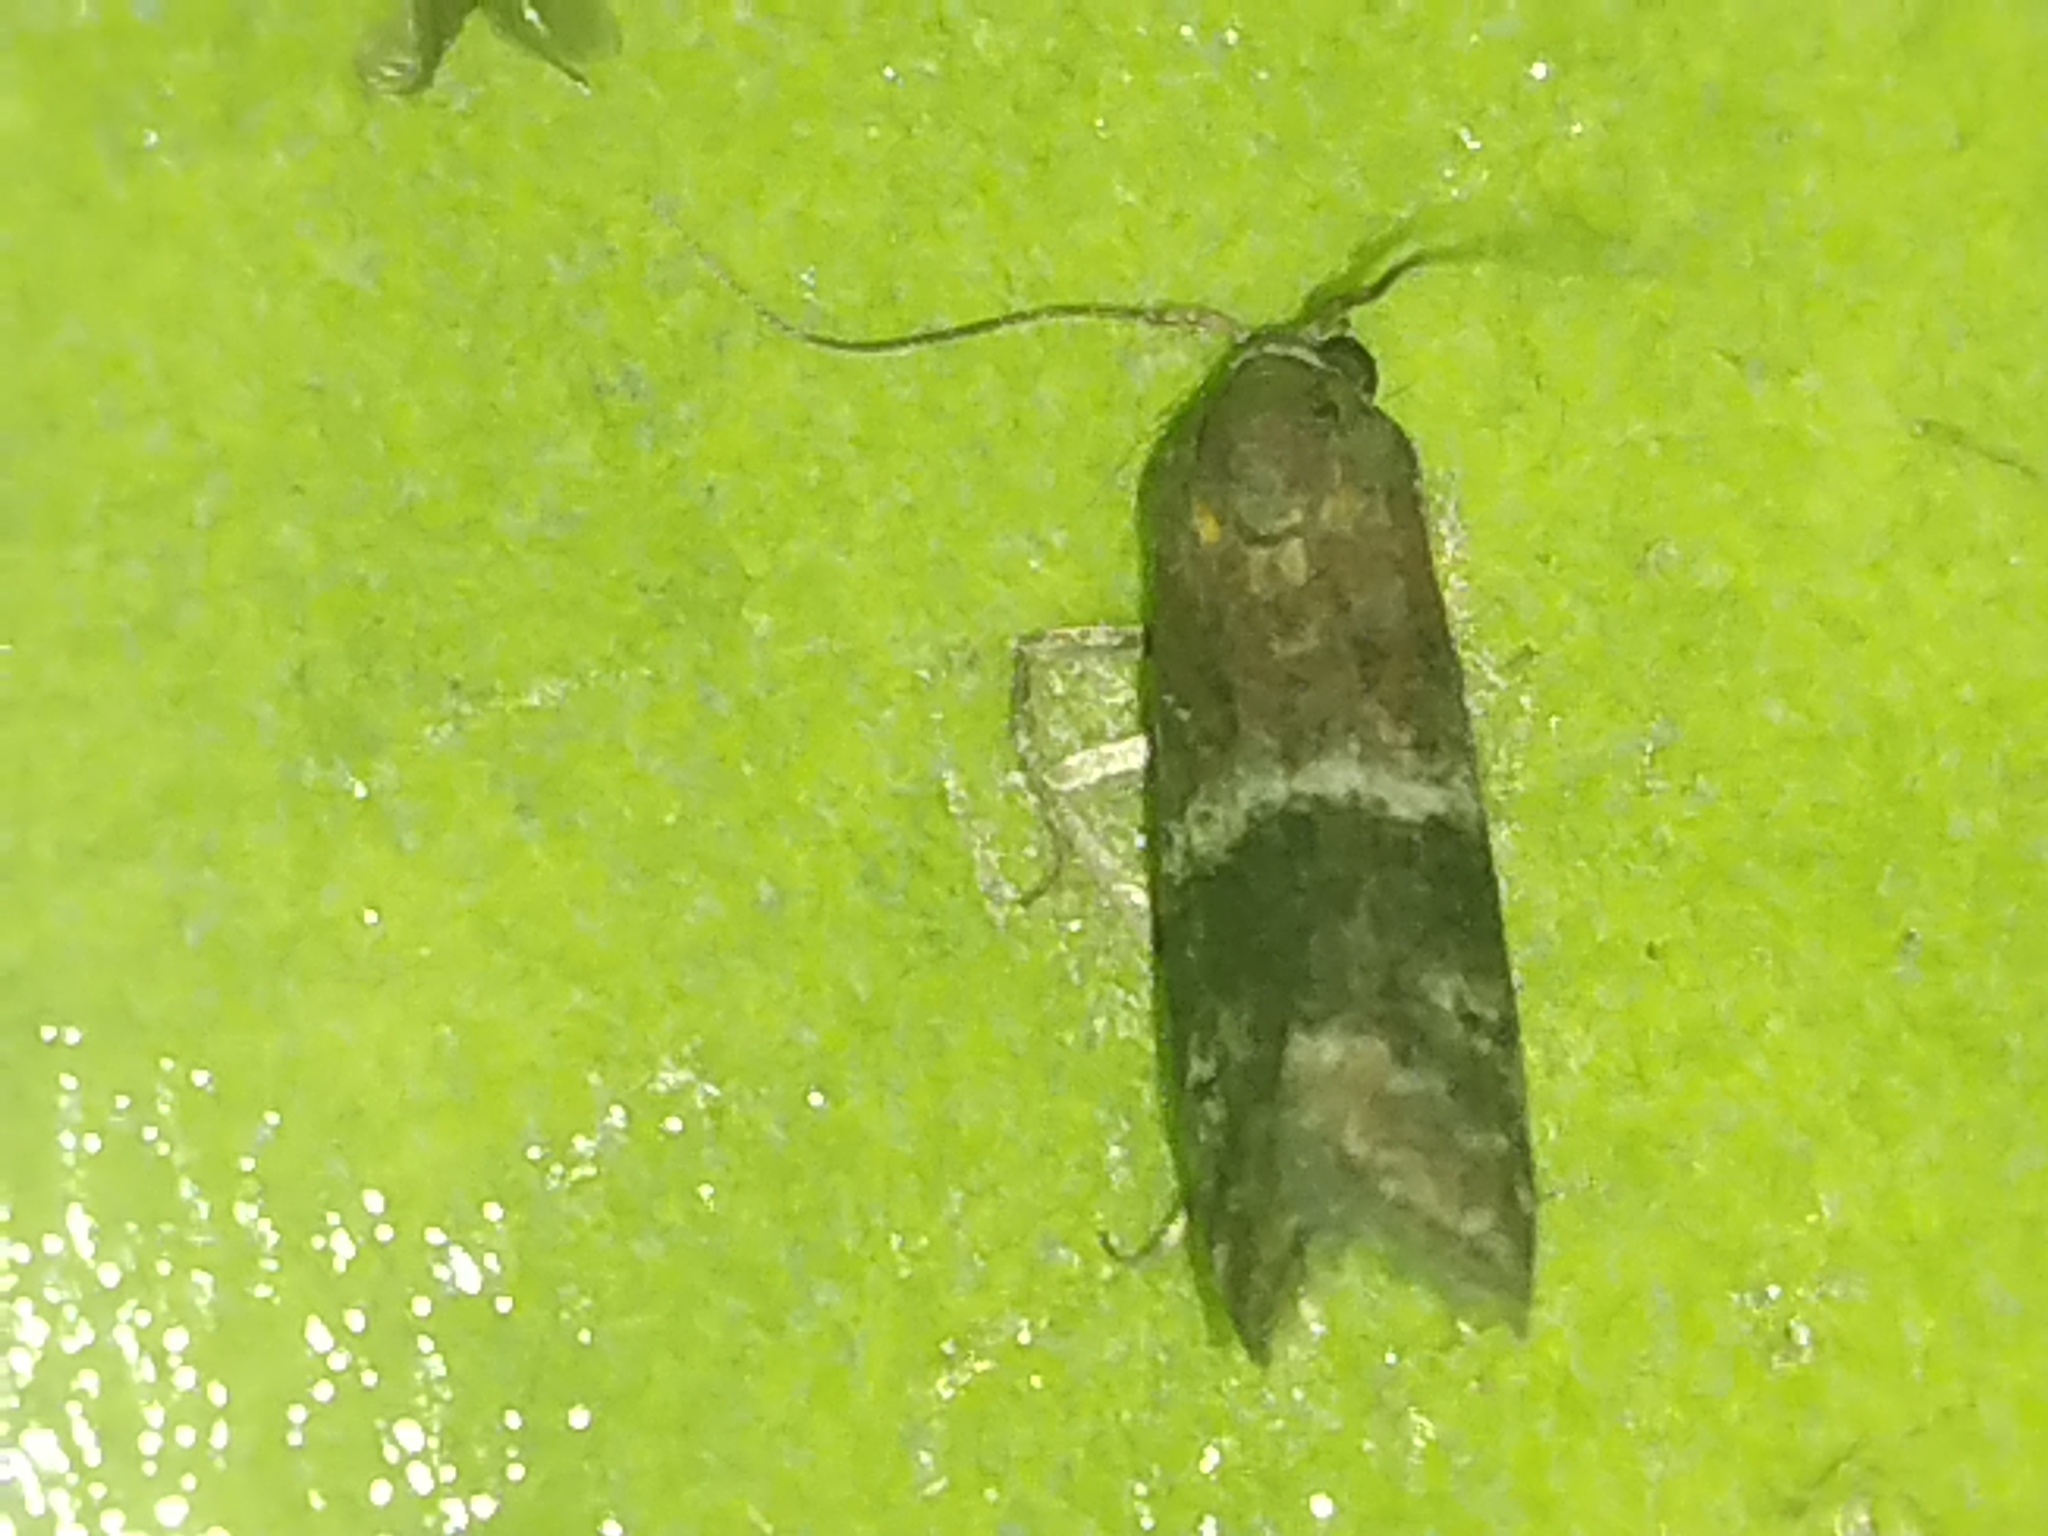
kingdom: Animalia
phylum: Arthropoda
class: Insecta
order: Lepidoptera
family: Pyralidae
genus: Moodna
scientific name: Moodna ostrinella
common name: Darker moodna moth
